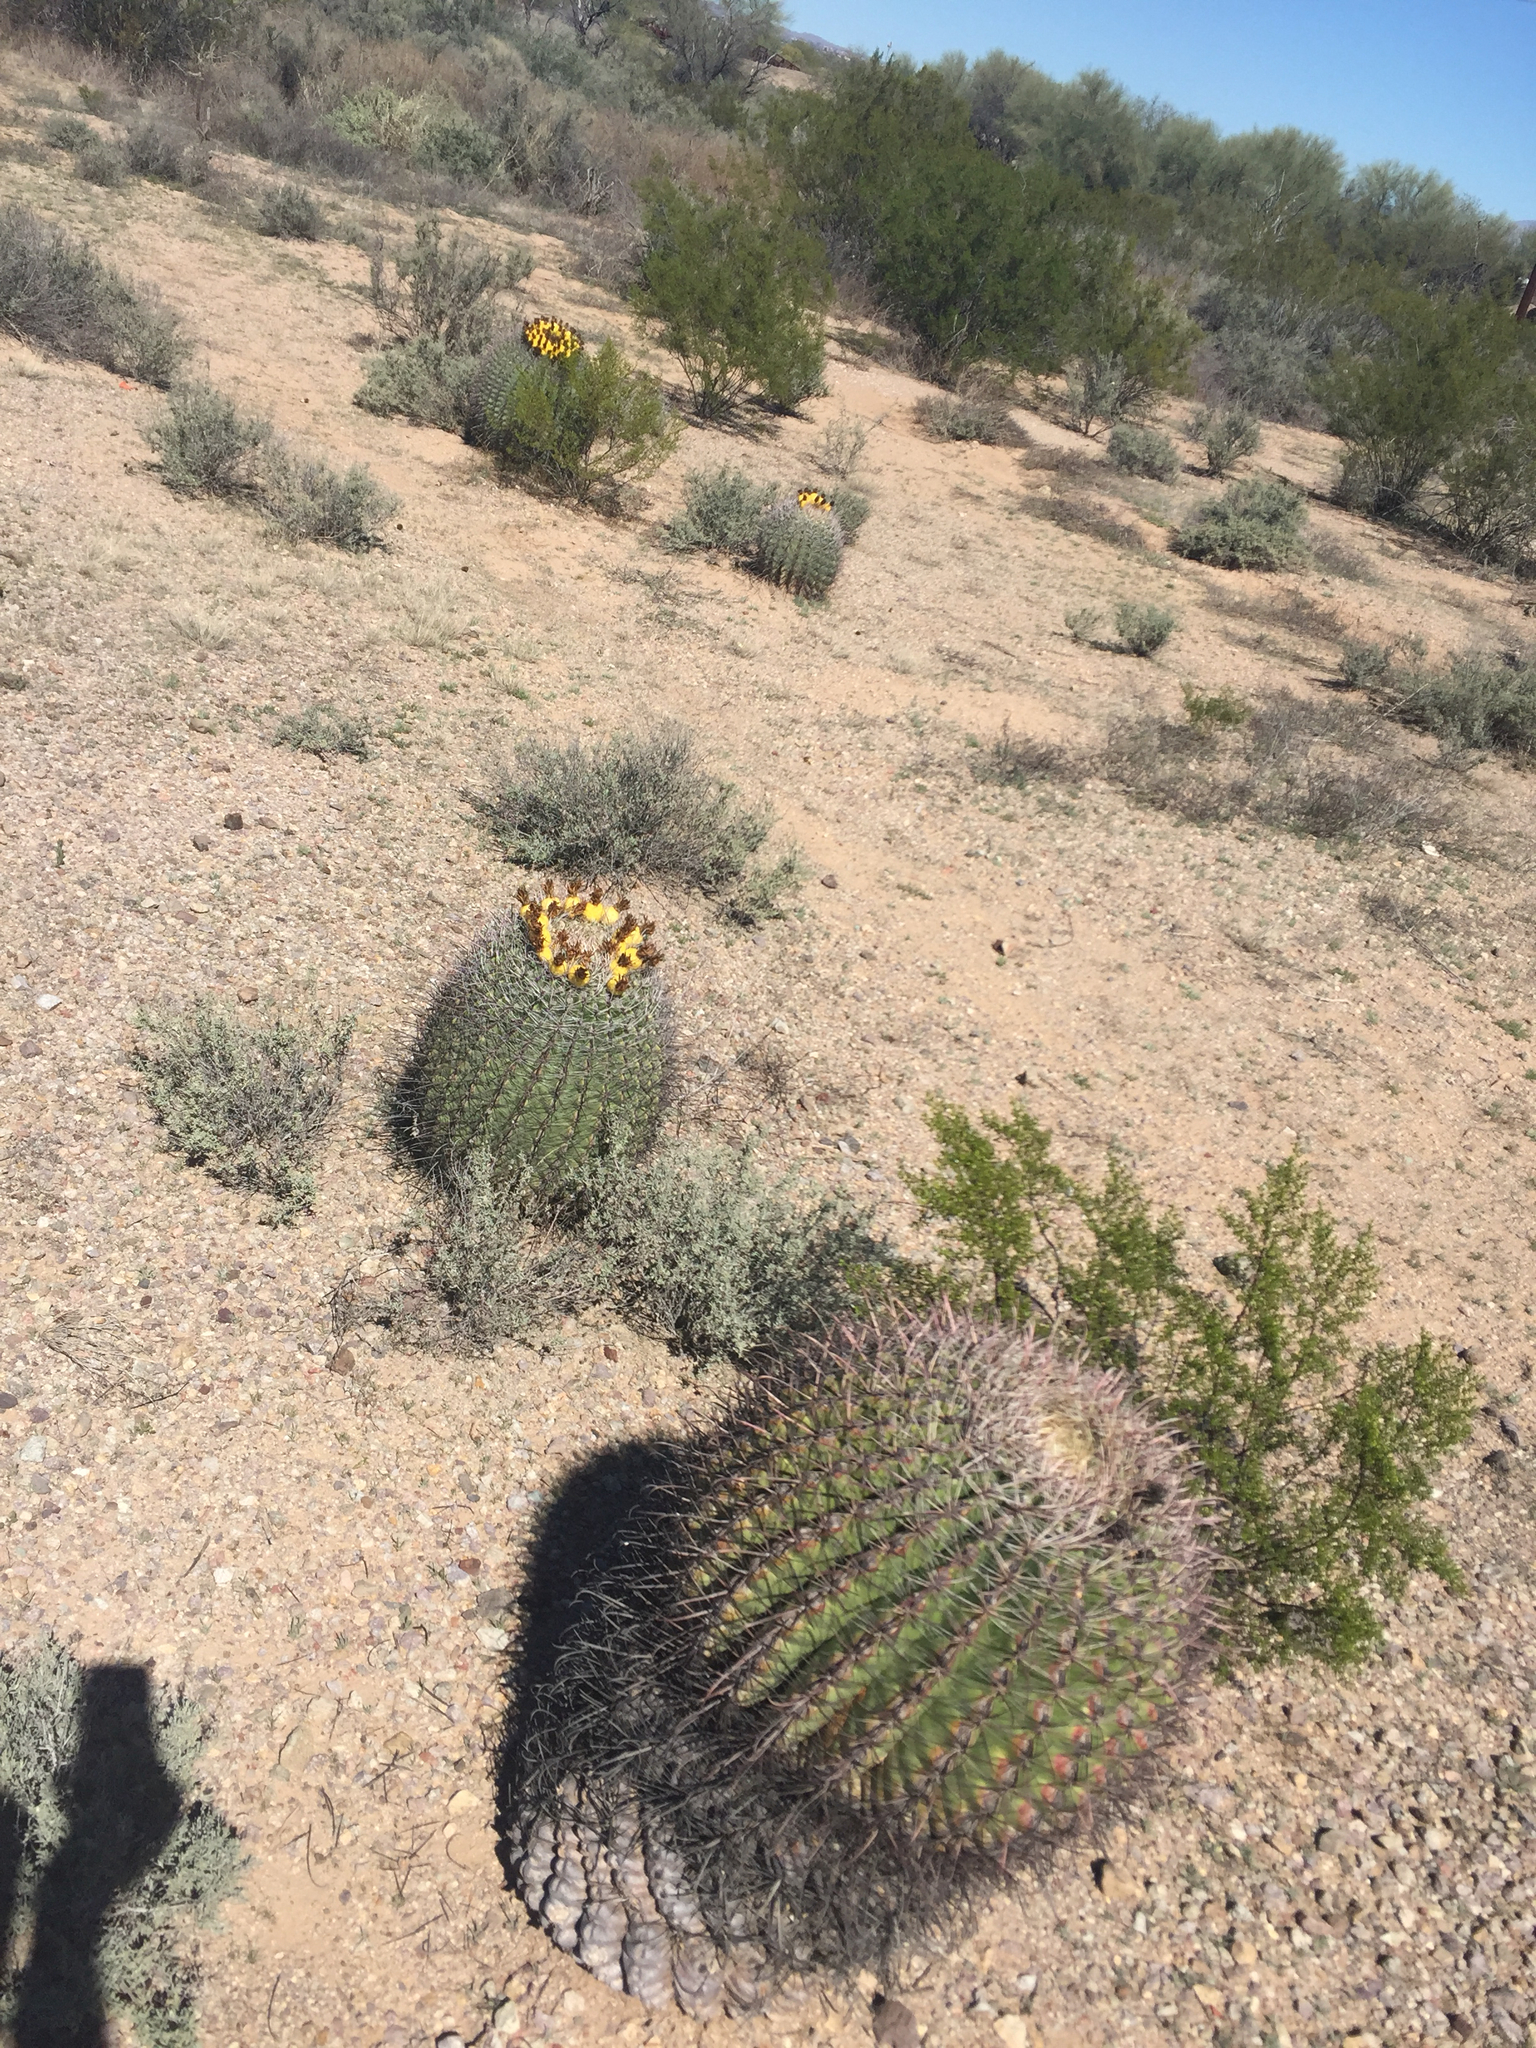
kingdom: Plantae
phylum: Tracheophyta
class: Magnoliopsida
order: Caryophyllales
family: Cactaceae
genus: Ferocactus
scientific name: Ferocactus wislizeni
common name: Candy barrel cactus
